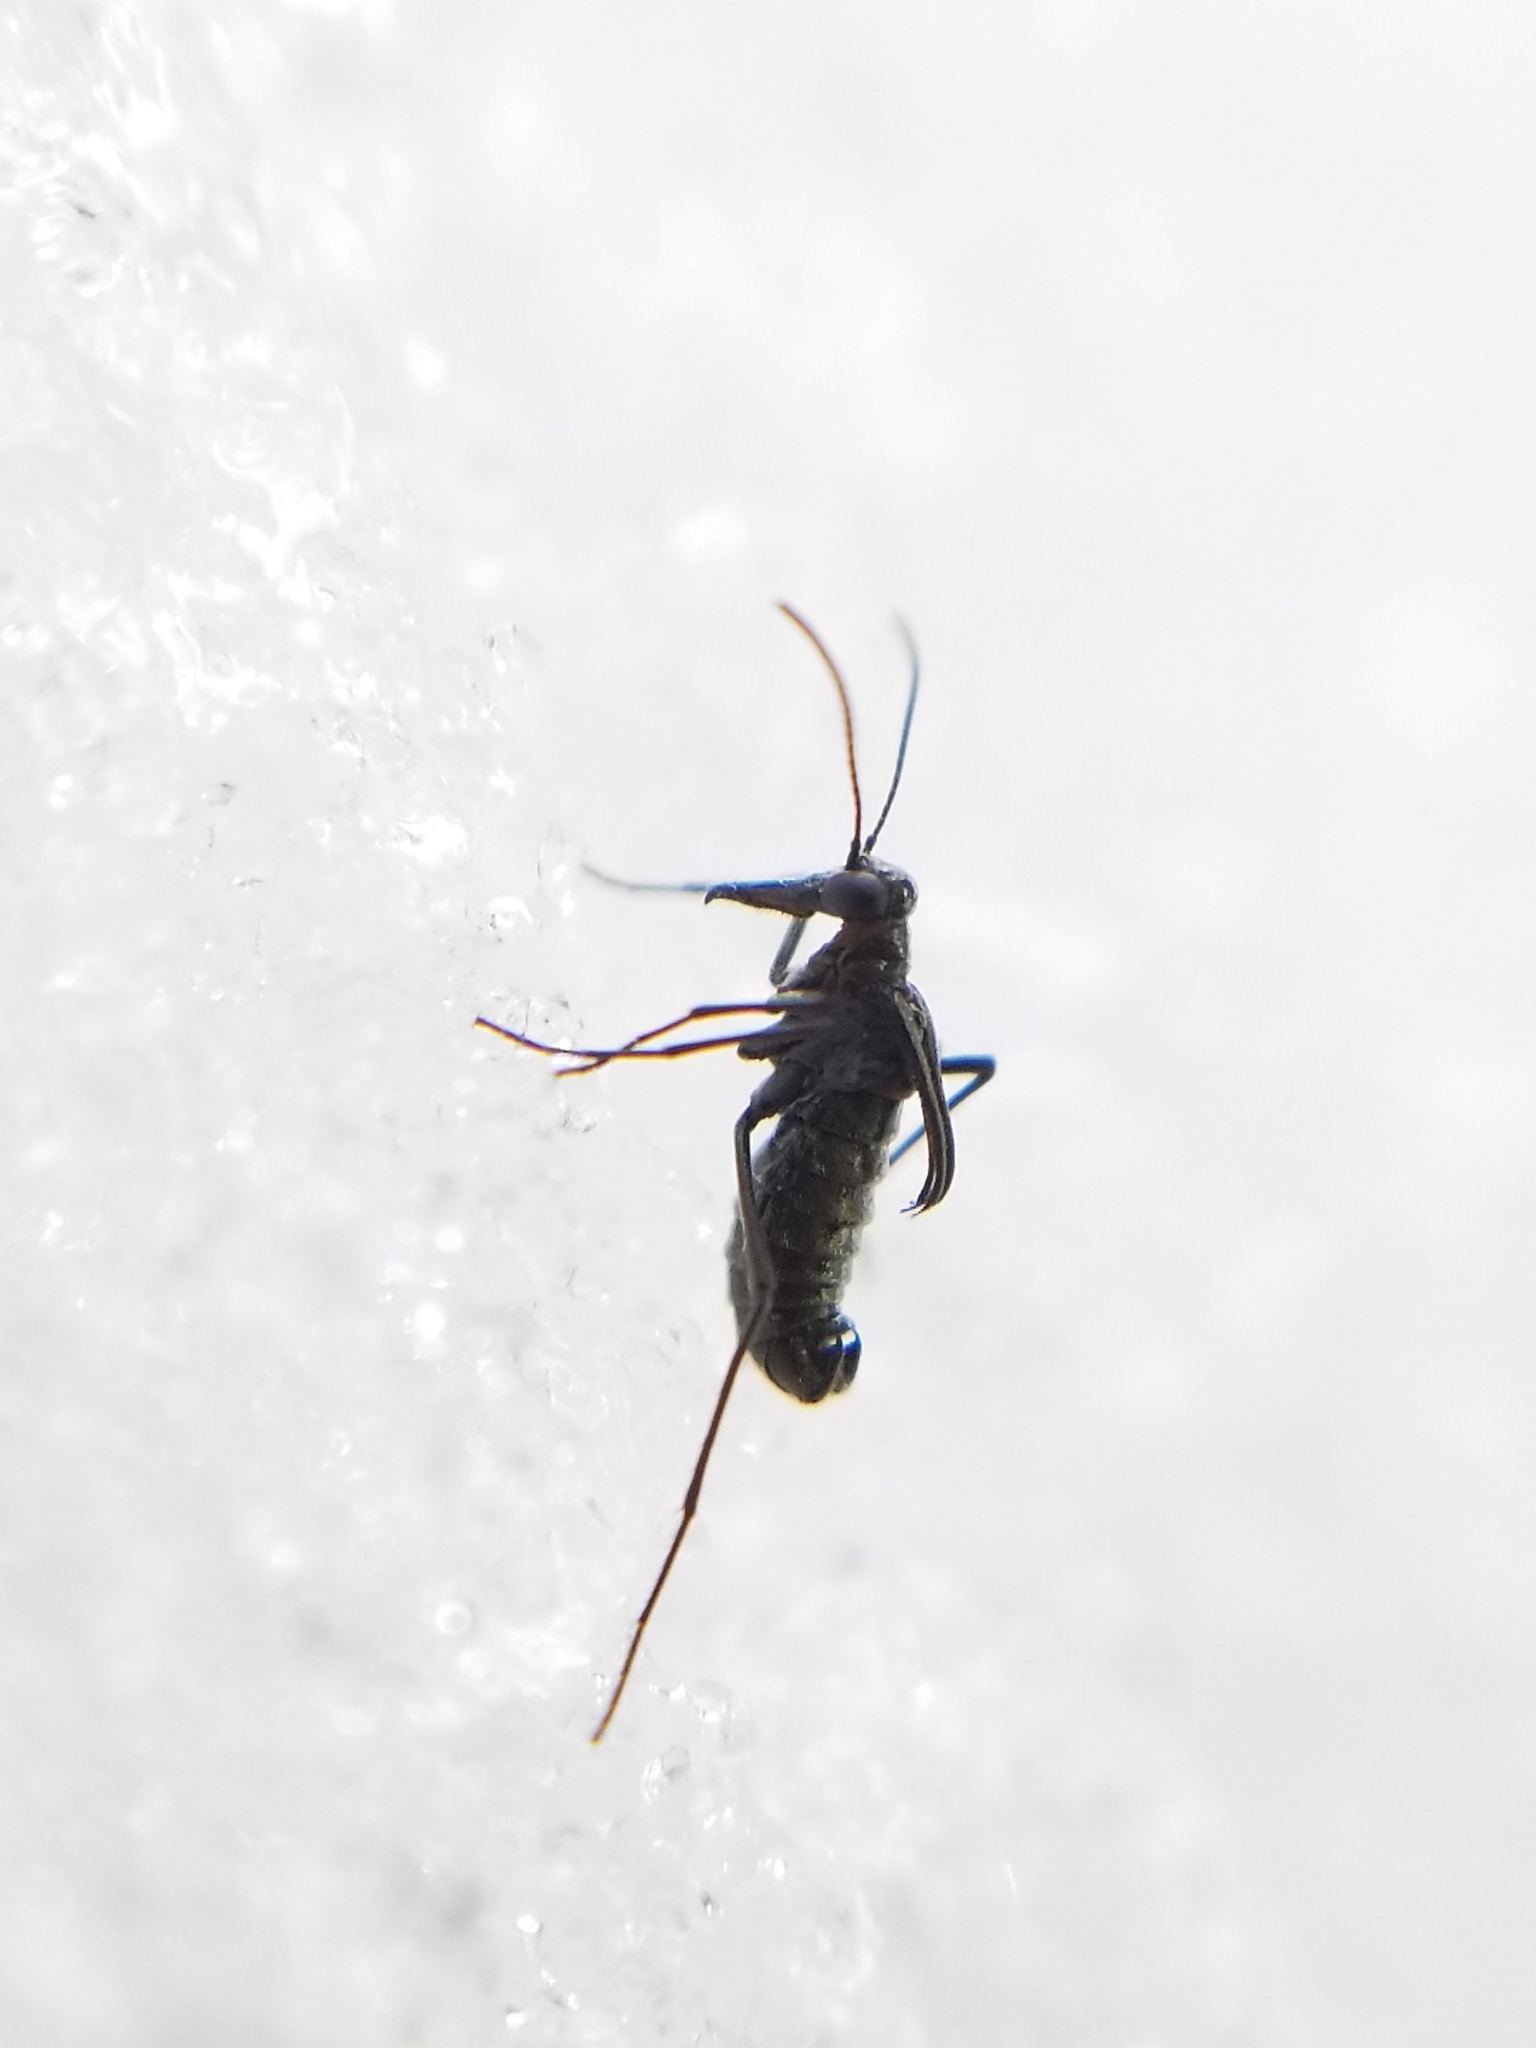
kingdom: Animalia
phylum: Arthropoda
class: Insecta
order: Mecoptera
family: Boreidae
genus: Boreus
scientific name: Boreus coloradensis
